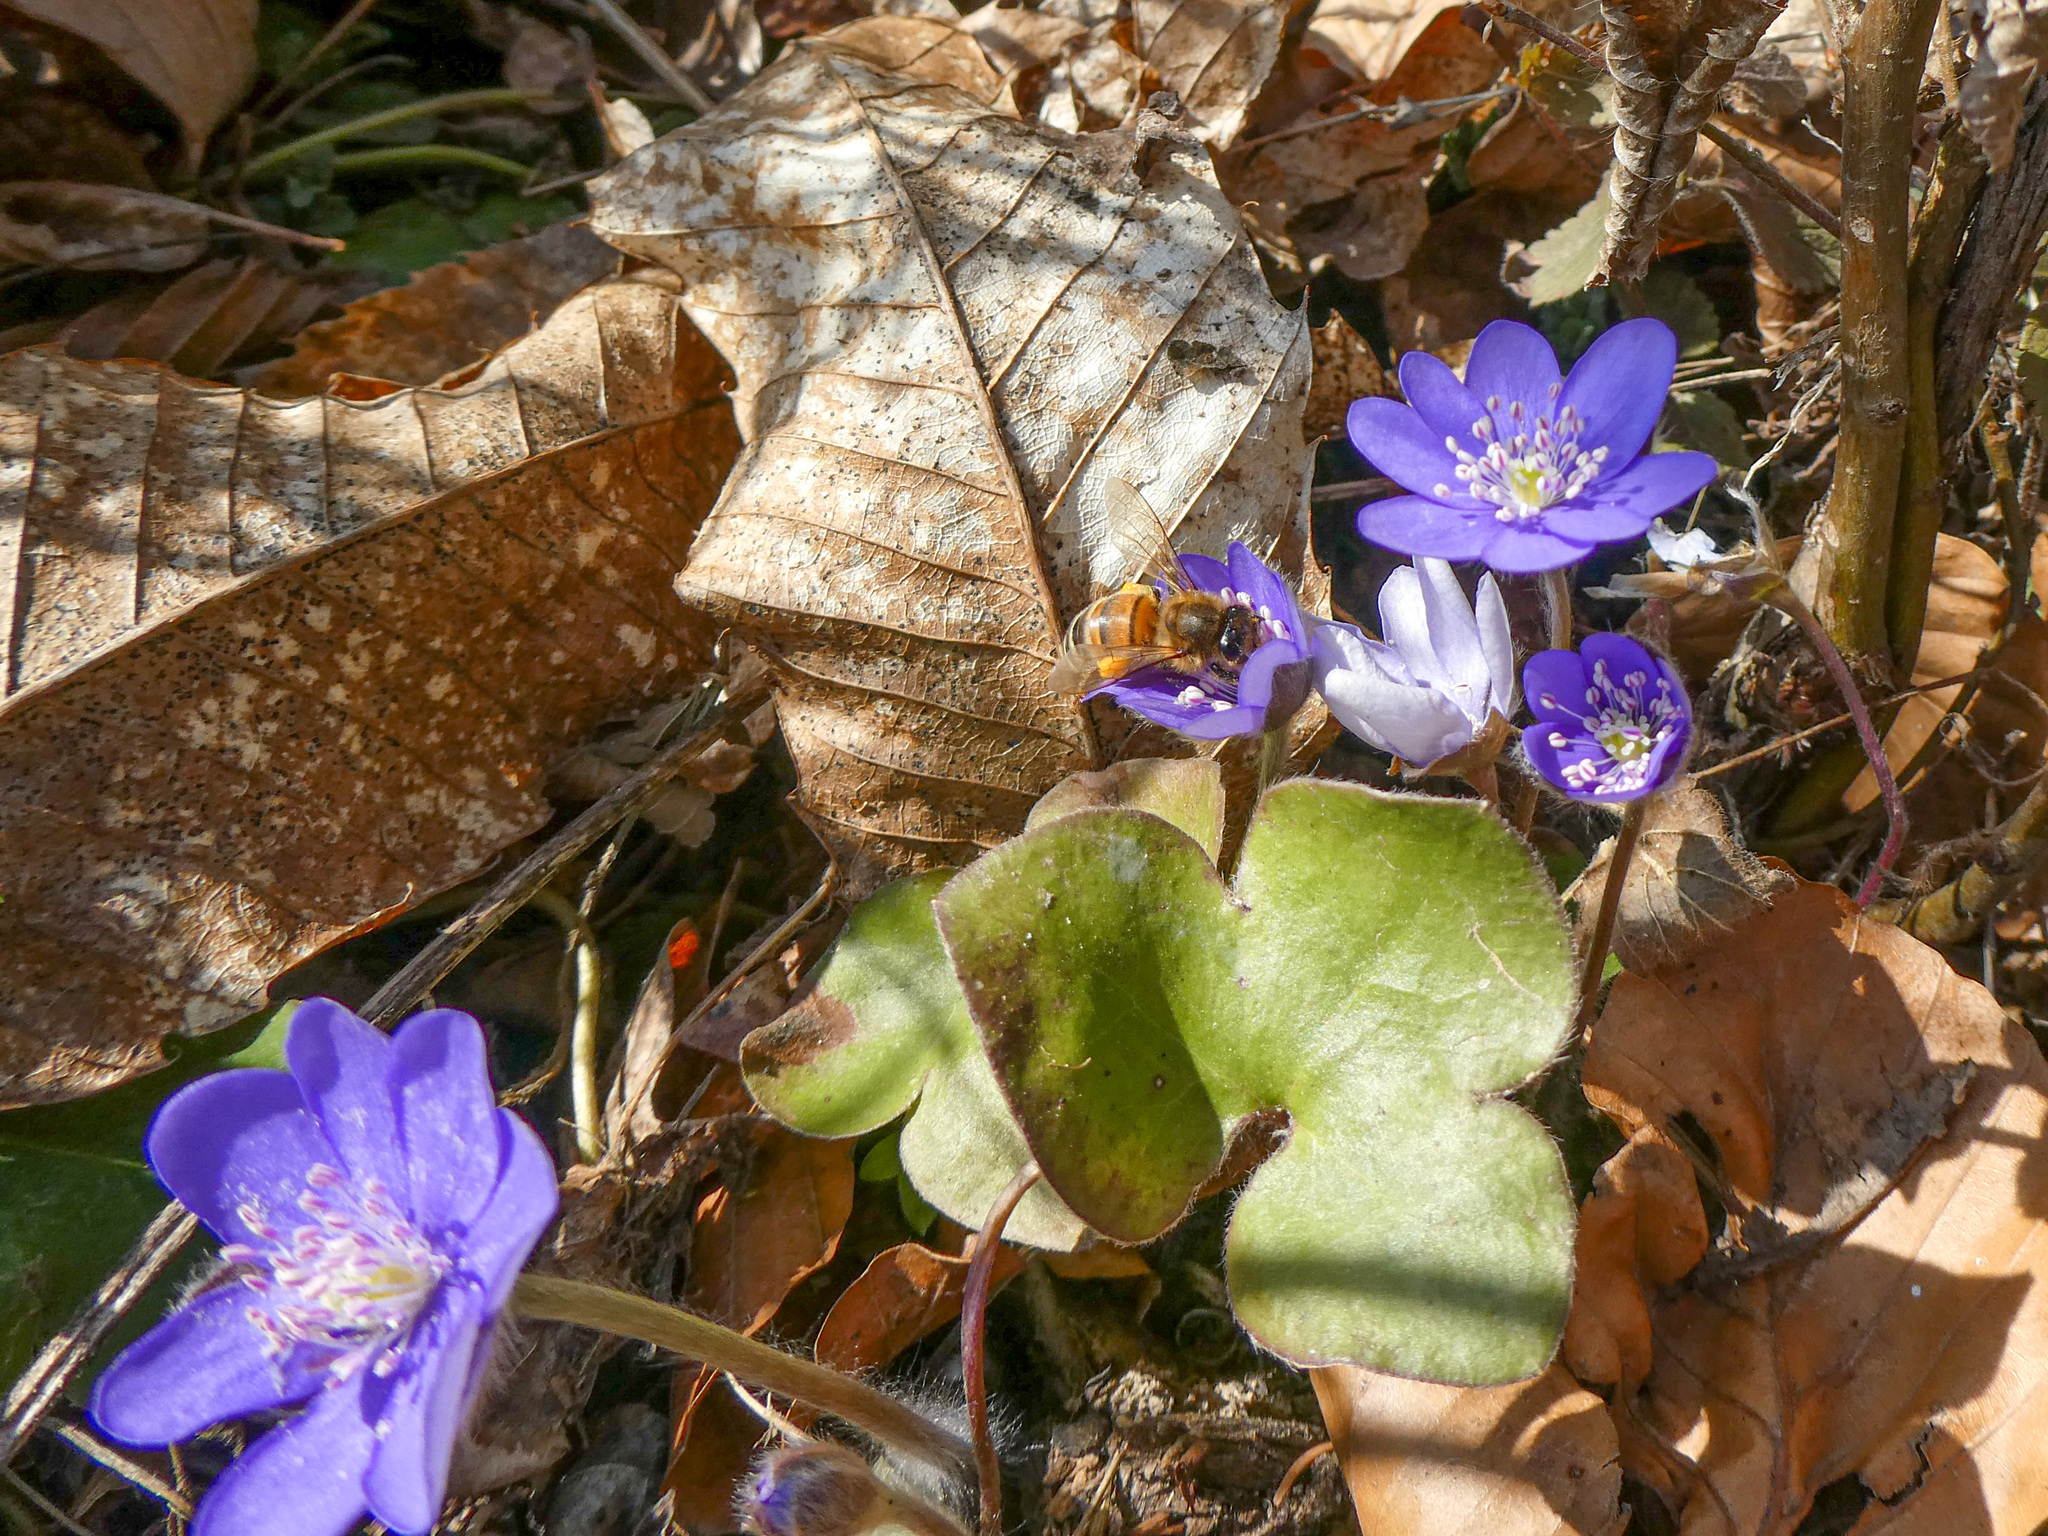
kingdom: Animalia
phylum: Arthropoda
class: Insecta
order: Hymenoptera
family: Apidae
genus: Apis
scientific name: Apis mellifera
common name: Honey bee
